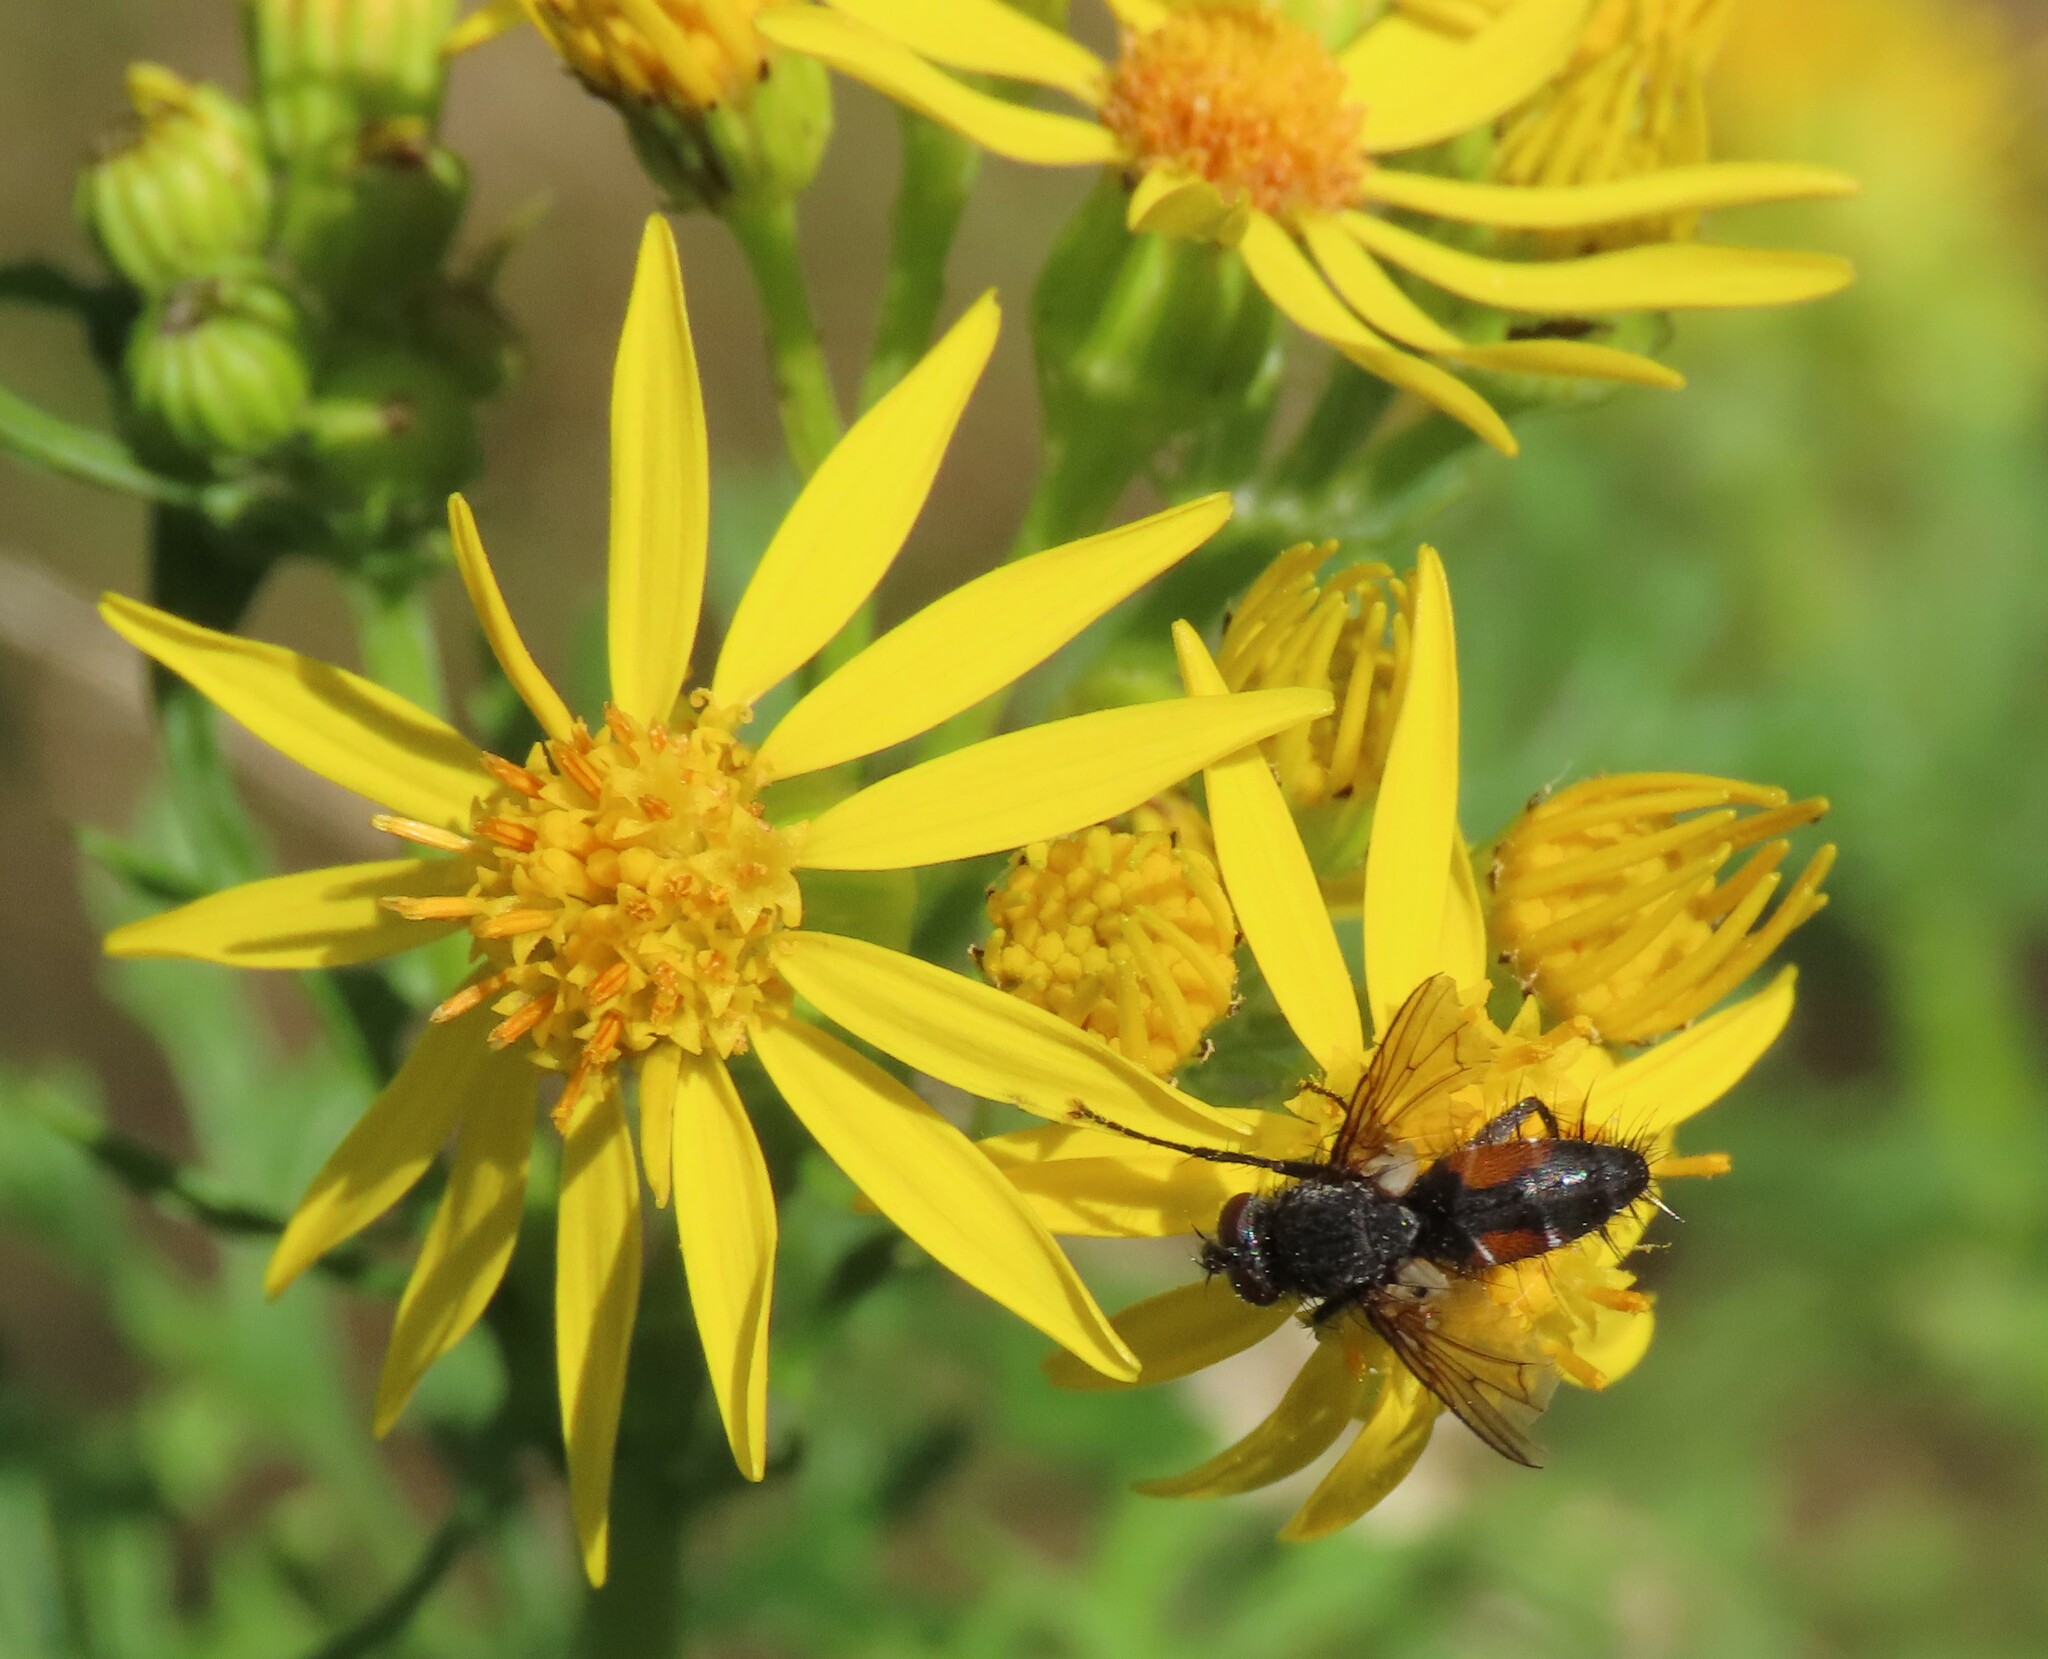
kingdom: Animalia
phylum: Arthropoda
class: Insecta
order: Diptera
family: Tachinidae
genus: Eriothrix
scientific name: Eriothrix rufomaculatus
